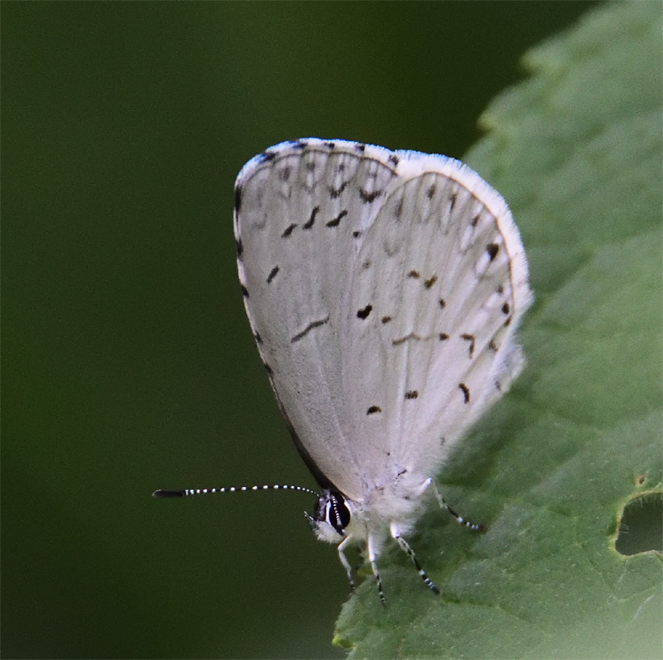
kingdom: Animalia
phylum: Arthropoda
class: Insecta
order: Lepidoptera
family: Lycaenidae
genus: Cyaniris
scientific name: Cyaniris neglecta
